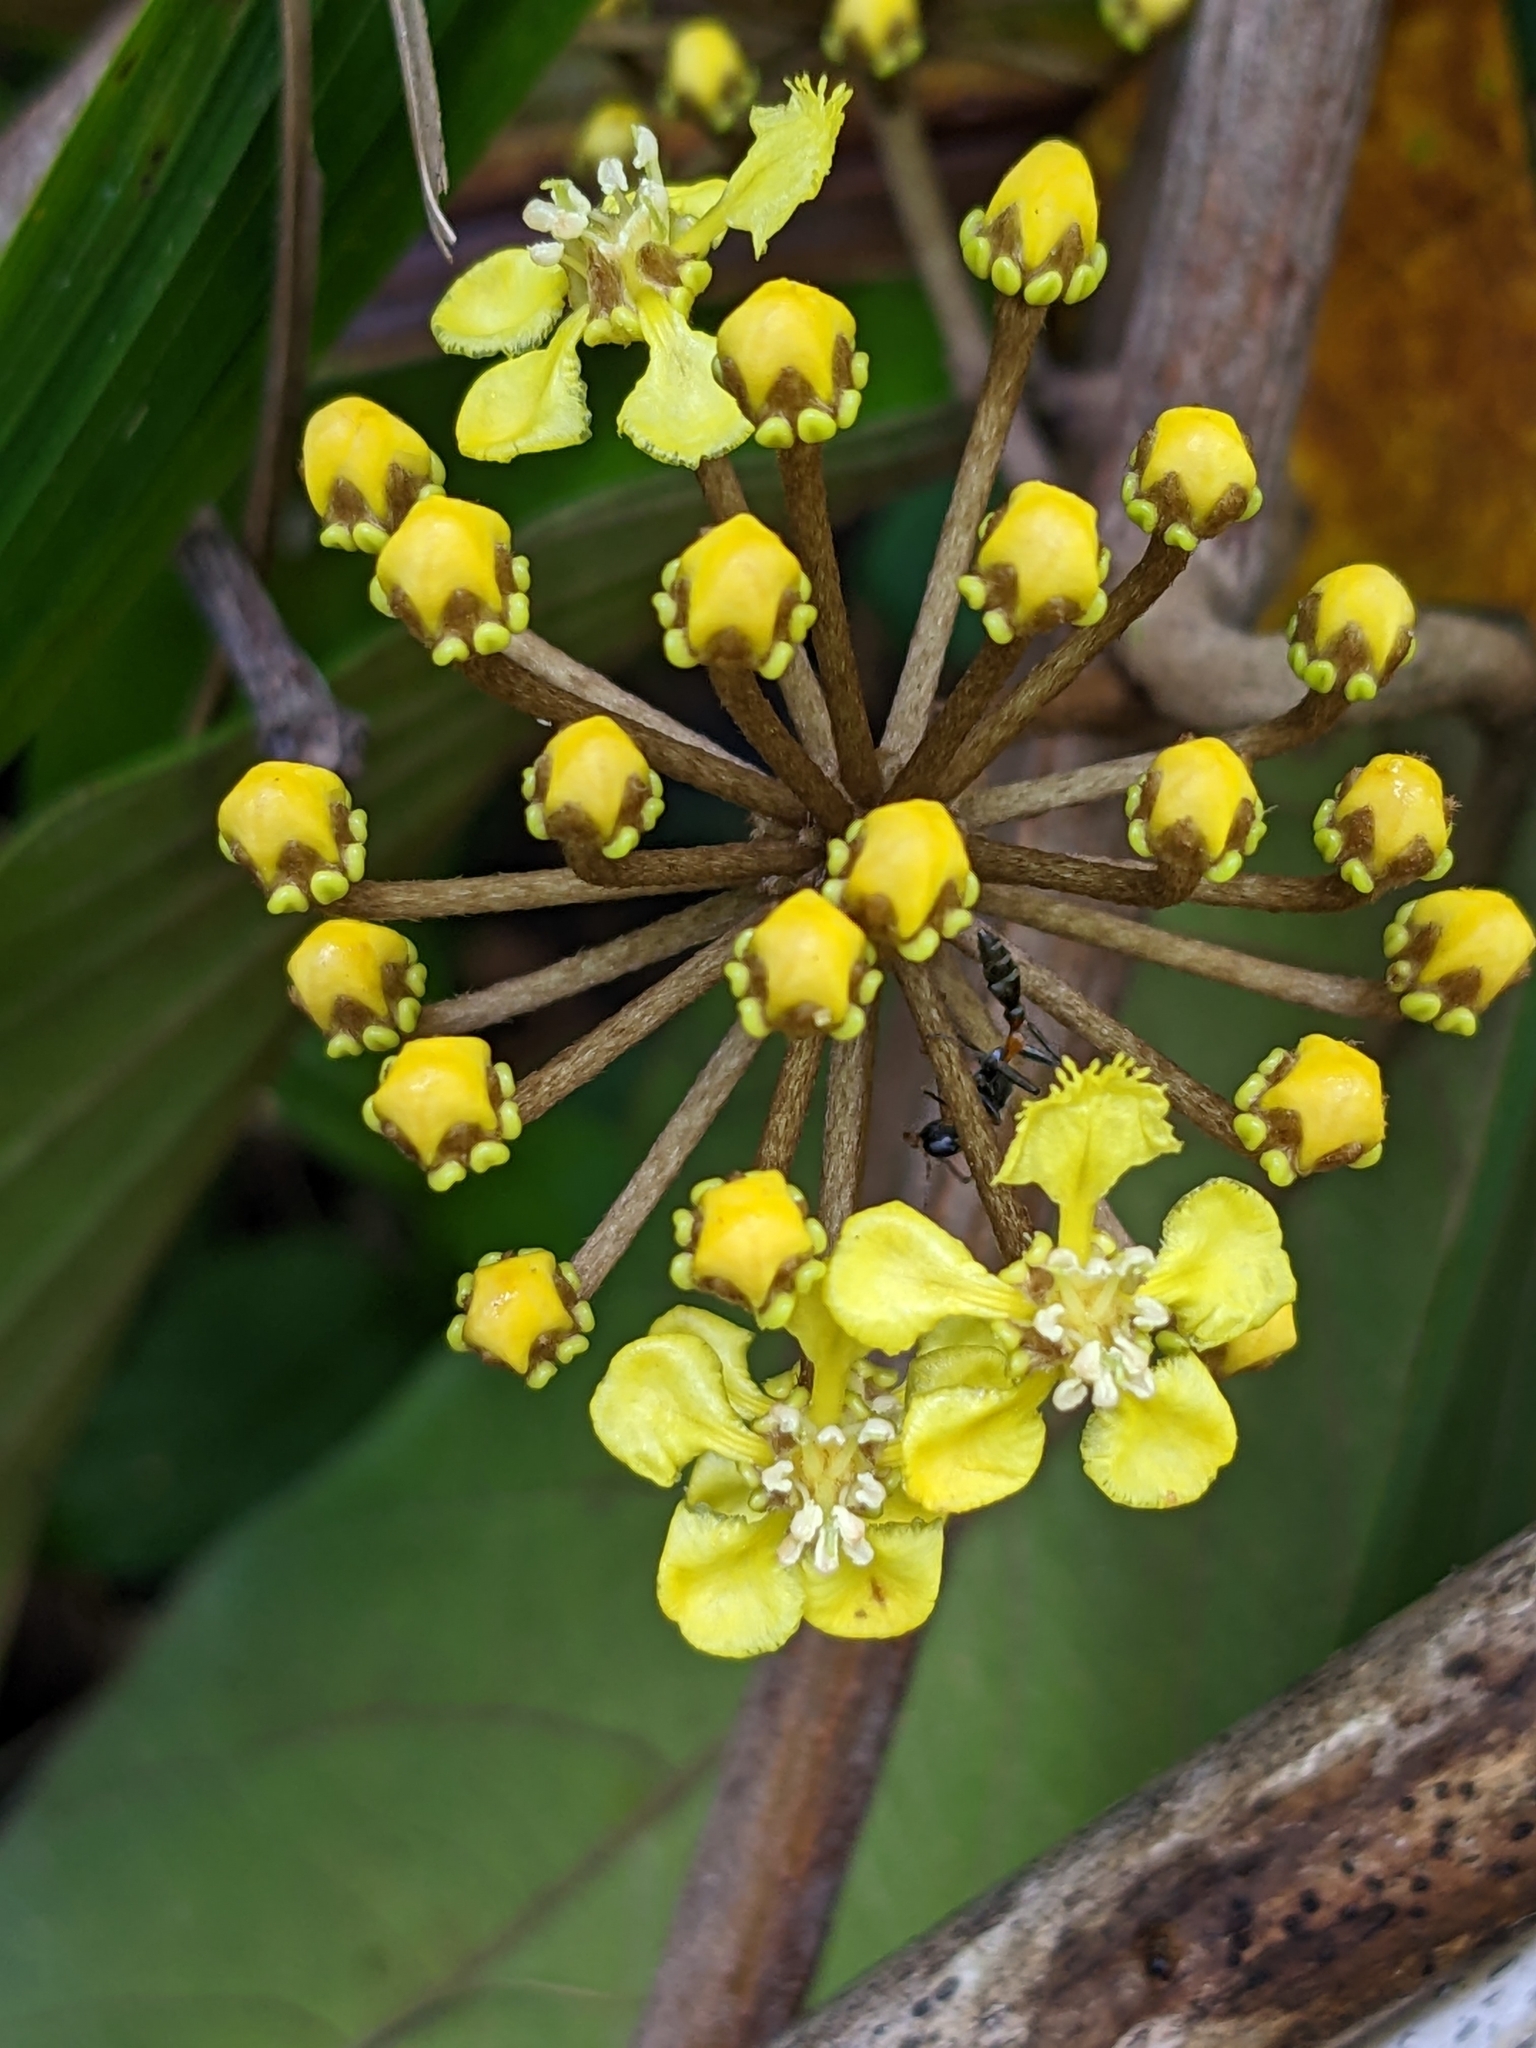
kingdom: Plantae
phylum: Tracheophyta
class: Magnoliopsida
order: Malpighiales
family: Malpighiaceae
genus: Hiraea
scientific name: Hiraea quapara
